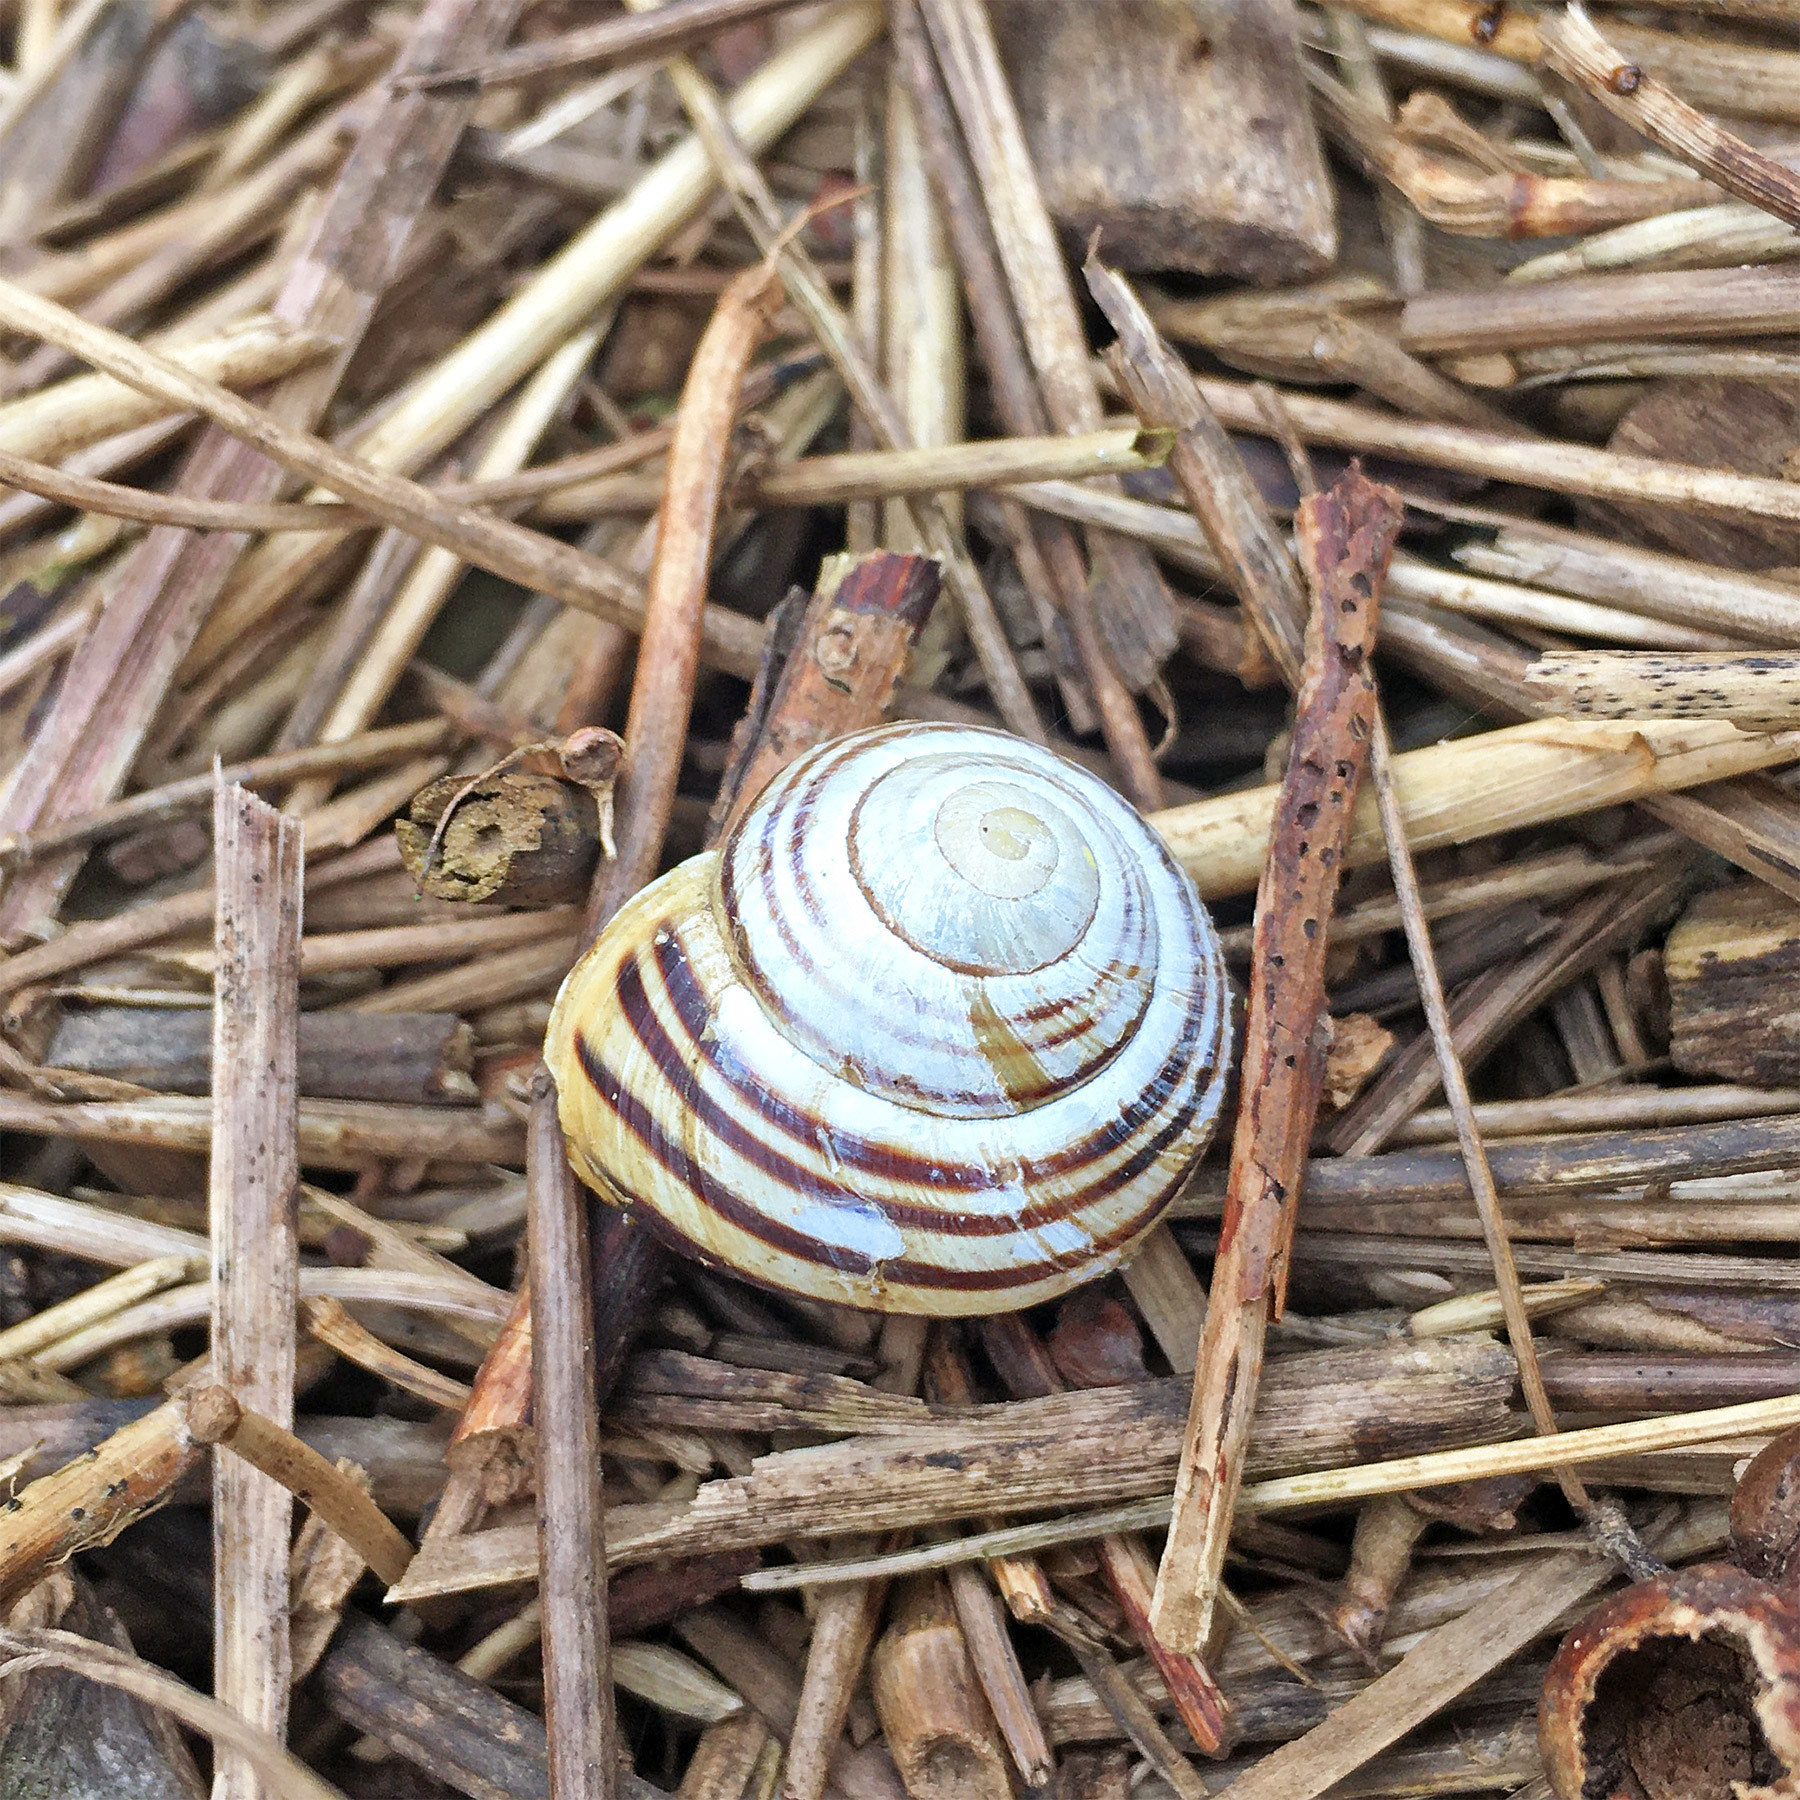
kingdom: Animalia
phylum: Mollusca
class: Gastropoda
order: Stylommatophora
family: Helicidae
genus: Cepaea
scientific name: Cepaea hortensis
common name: White-lip gardensnail
